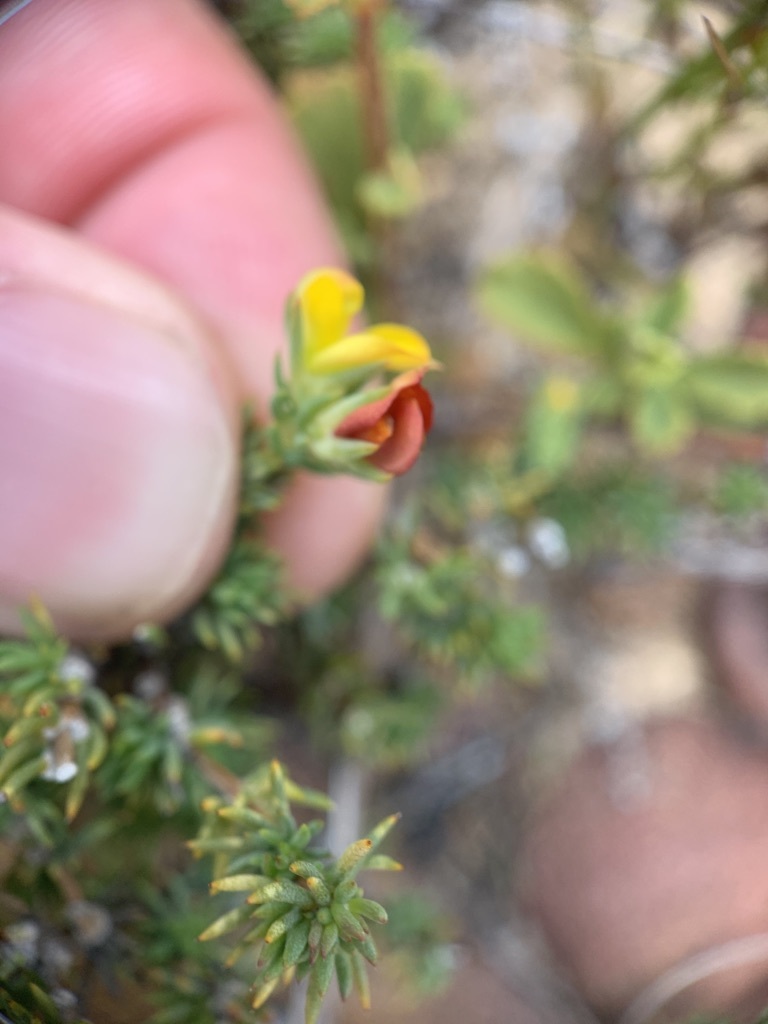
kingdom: Plantae
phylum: Tracheophyta
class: Magnoliopsida
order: Fabales
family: Fabaceae
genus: Aspalathus
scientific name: Aspalathus juniperina
